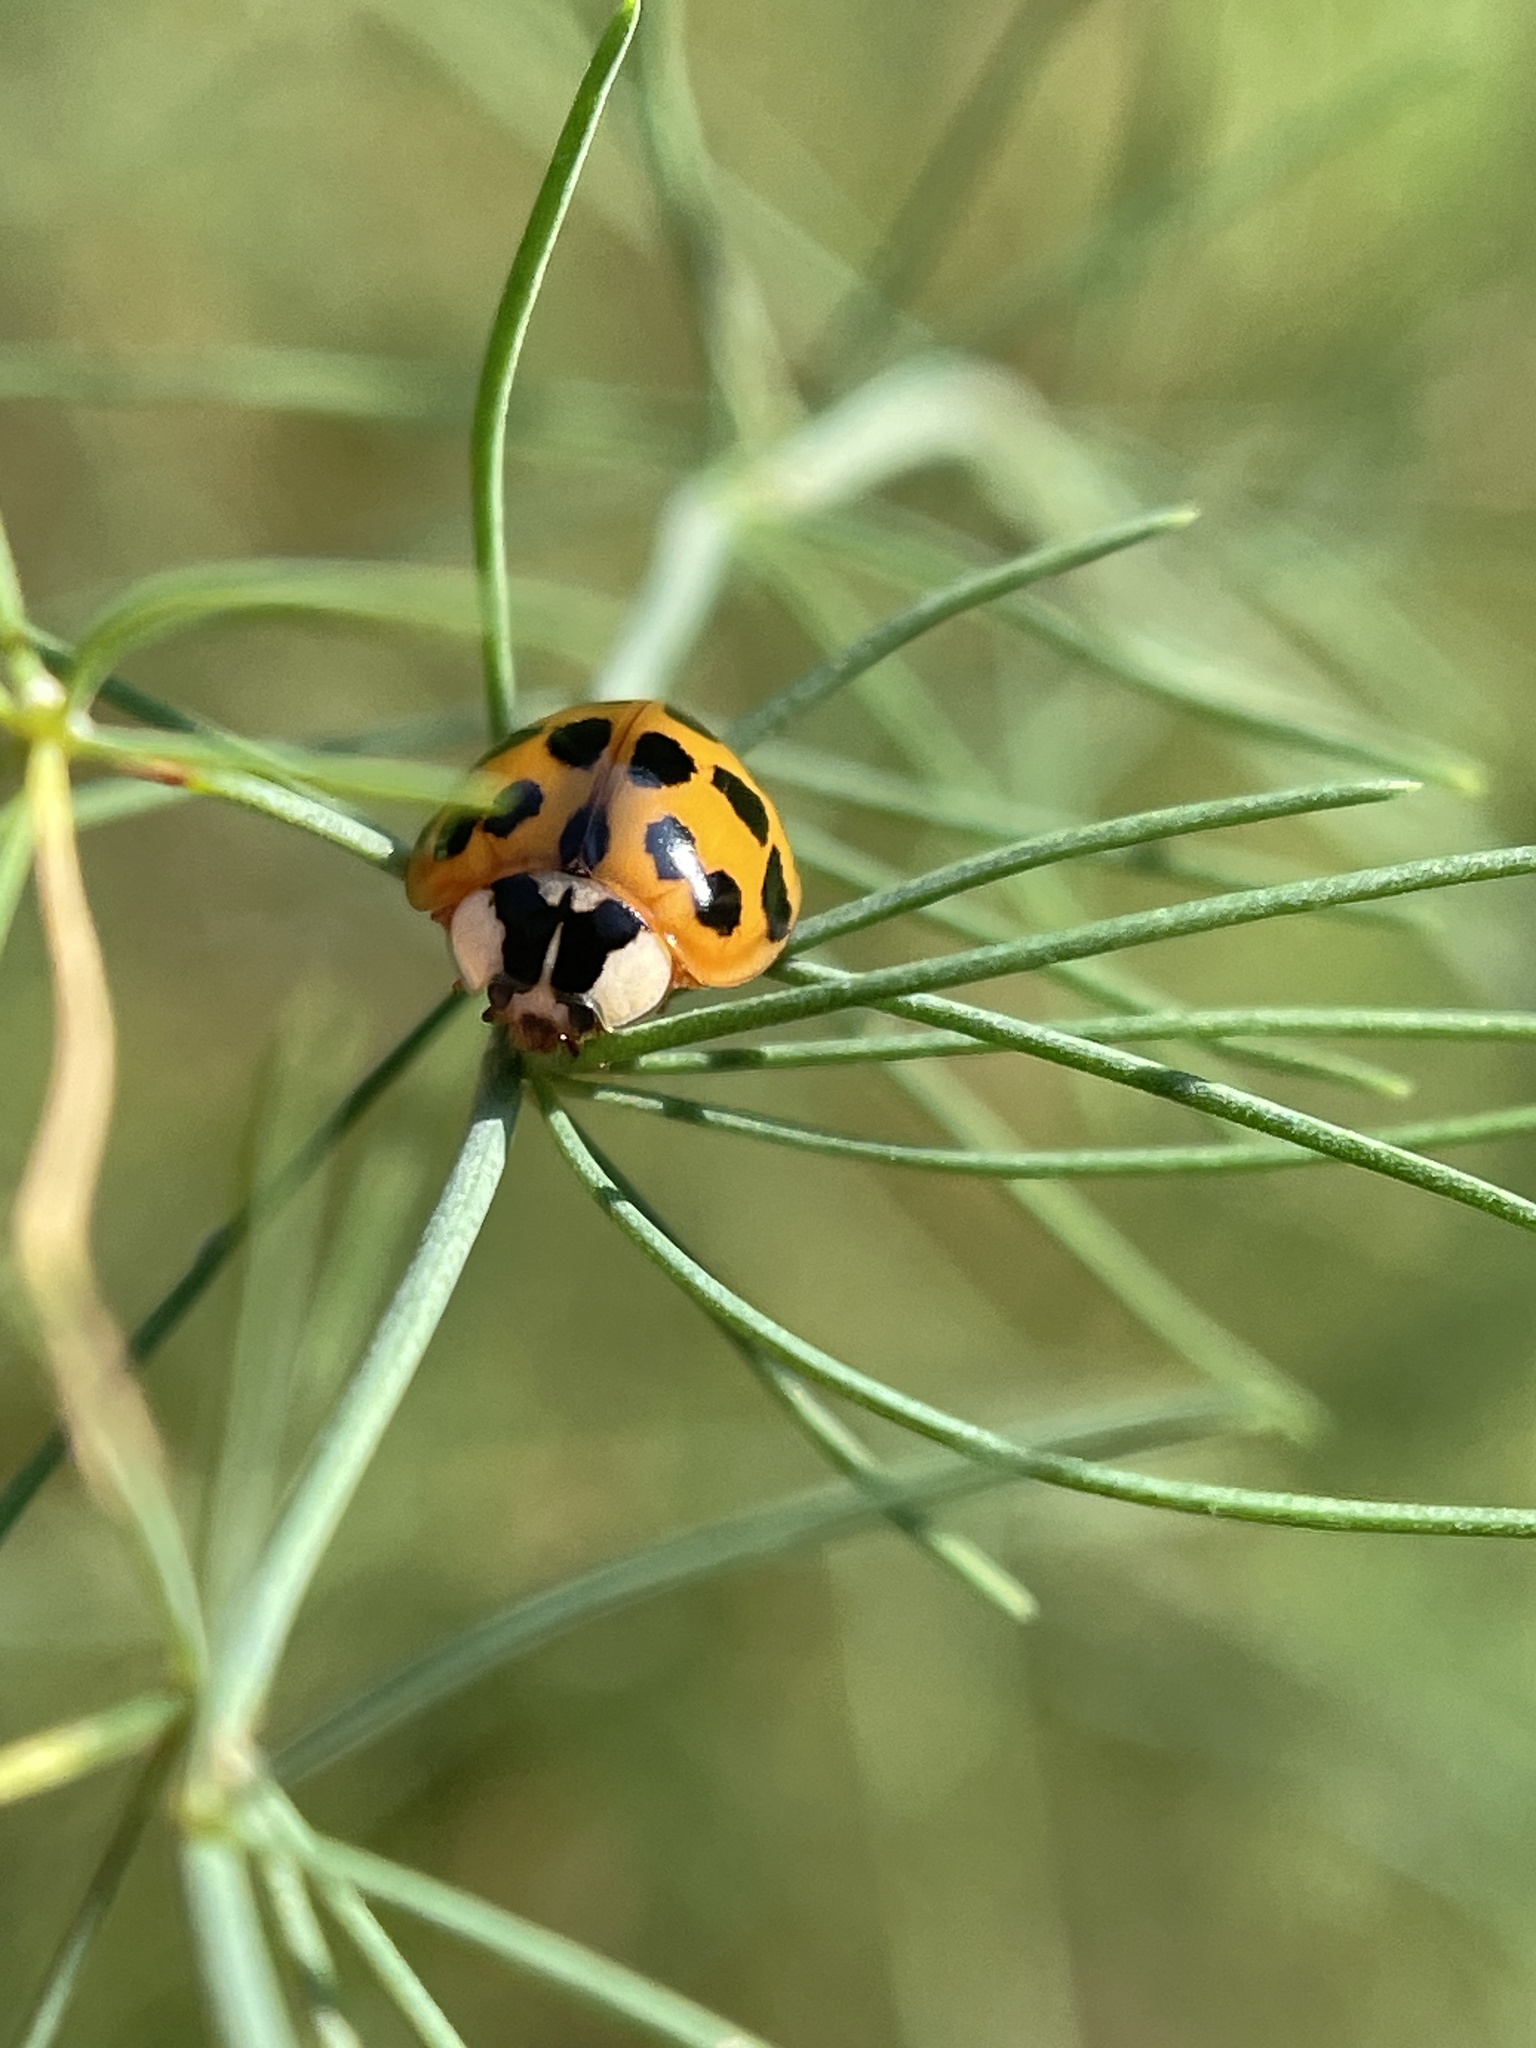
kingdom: Animalia
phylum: Arthropoda
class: Insecta
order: Coleoptera
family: Coccinellidae
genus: Harmonia
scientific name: Harmonia axyridis
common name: Harlequin ladybird
